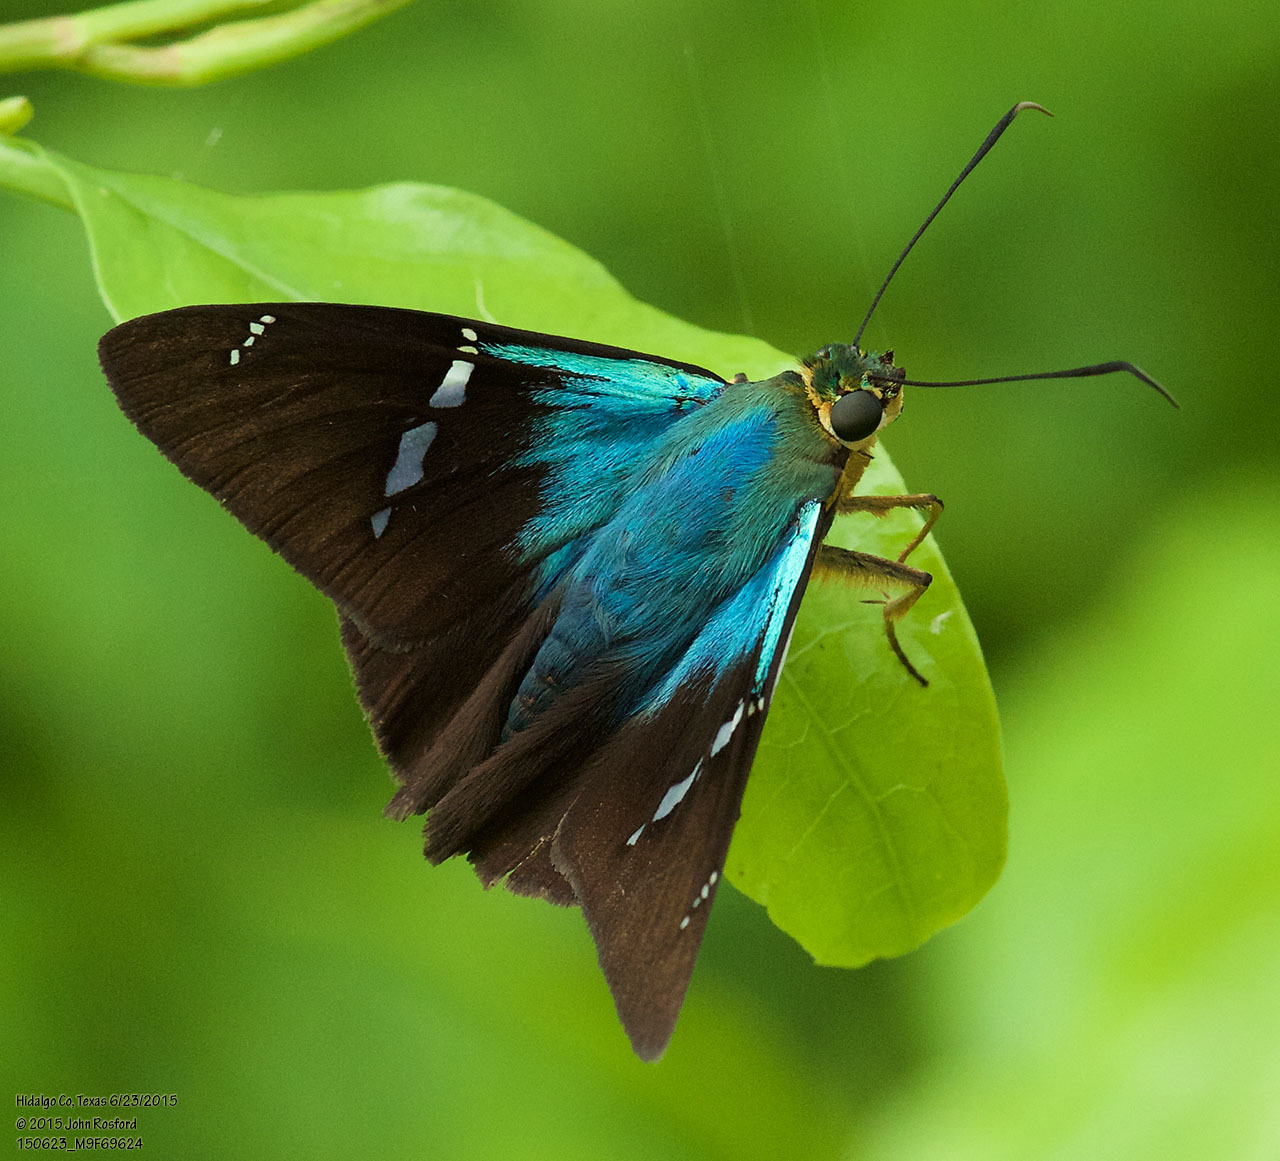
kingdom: Animalia
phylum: Arthropoda
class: Insecta
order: Lepidoptera
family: Hesperiidae
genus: Astraptes
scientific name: Astraptes fulgerator
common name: Two-barred flasher
